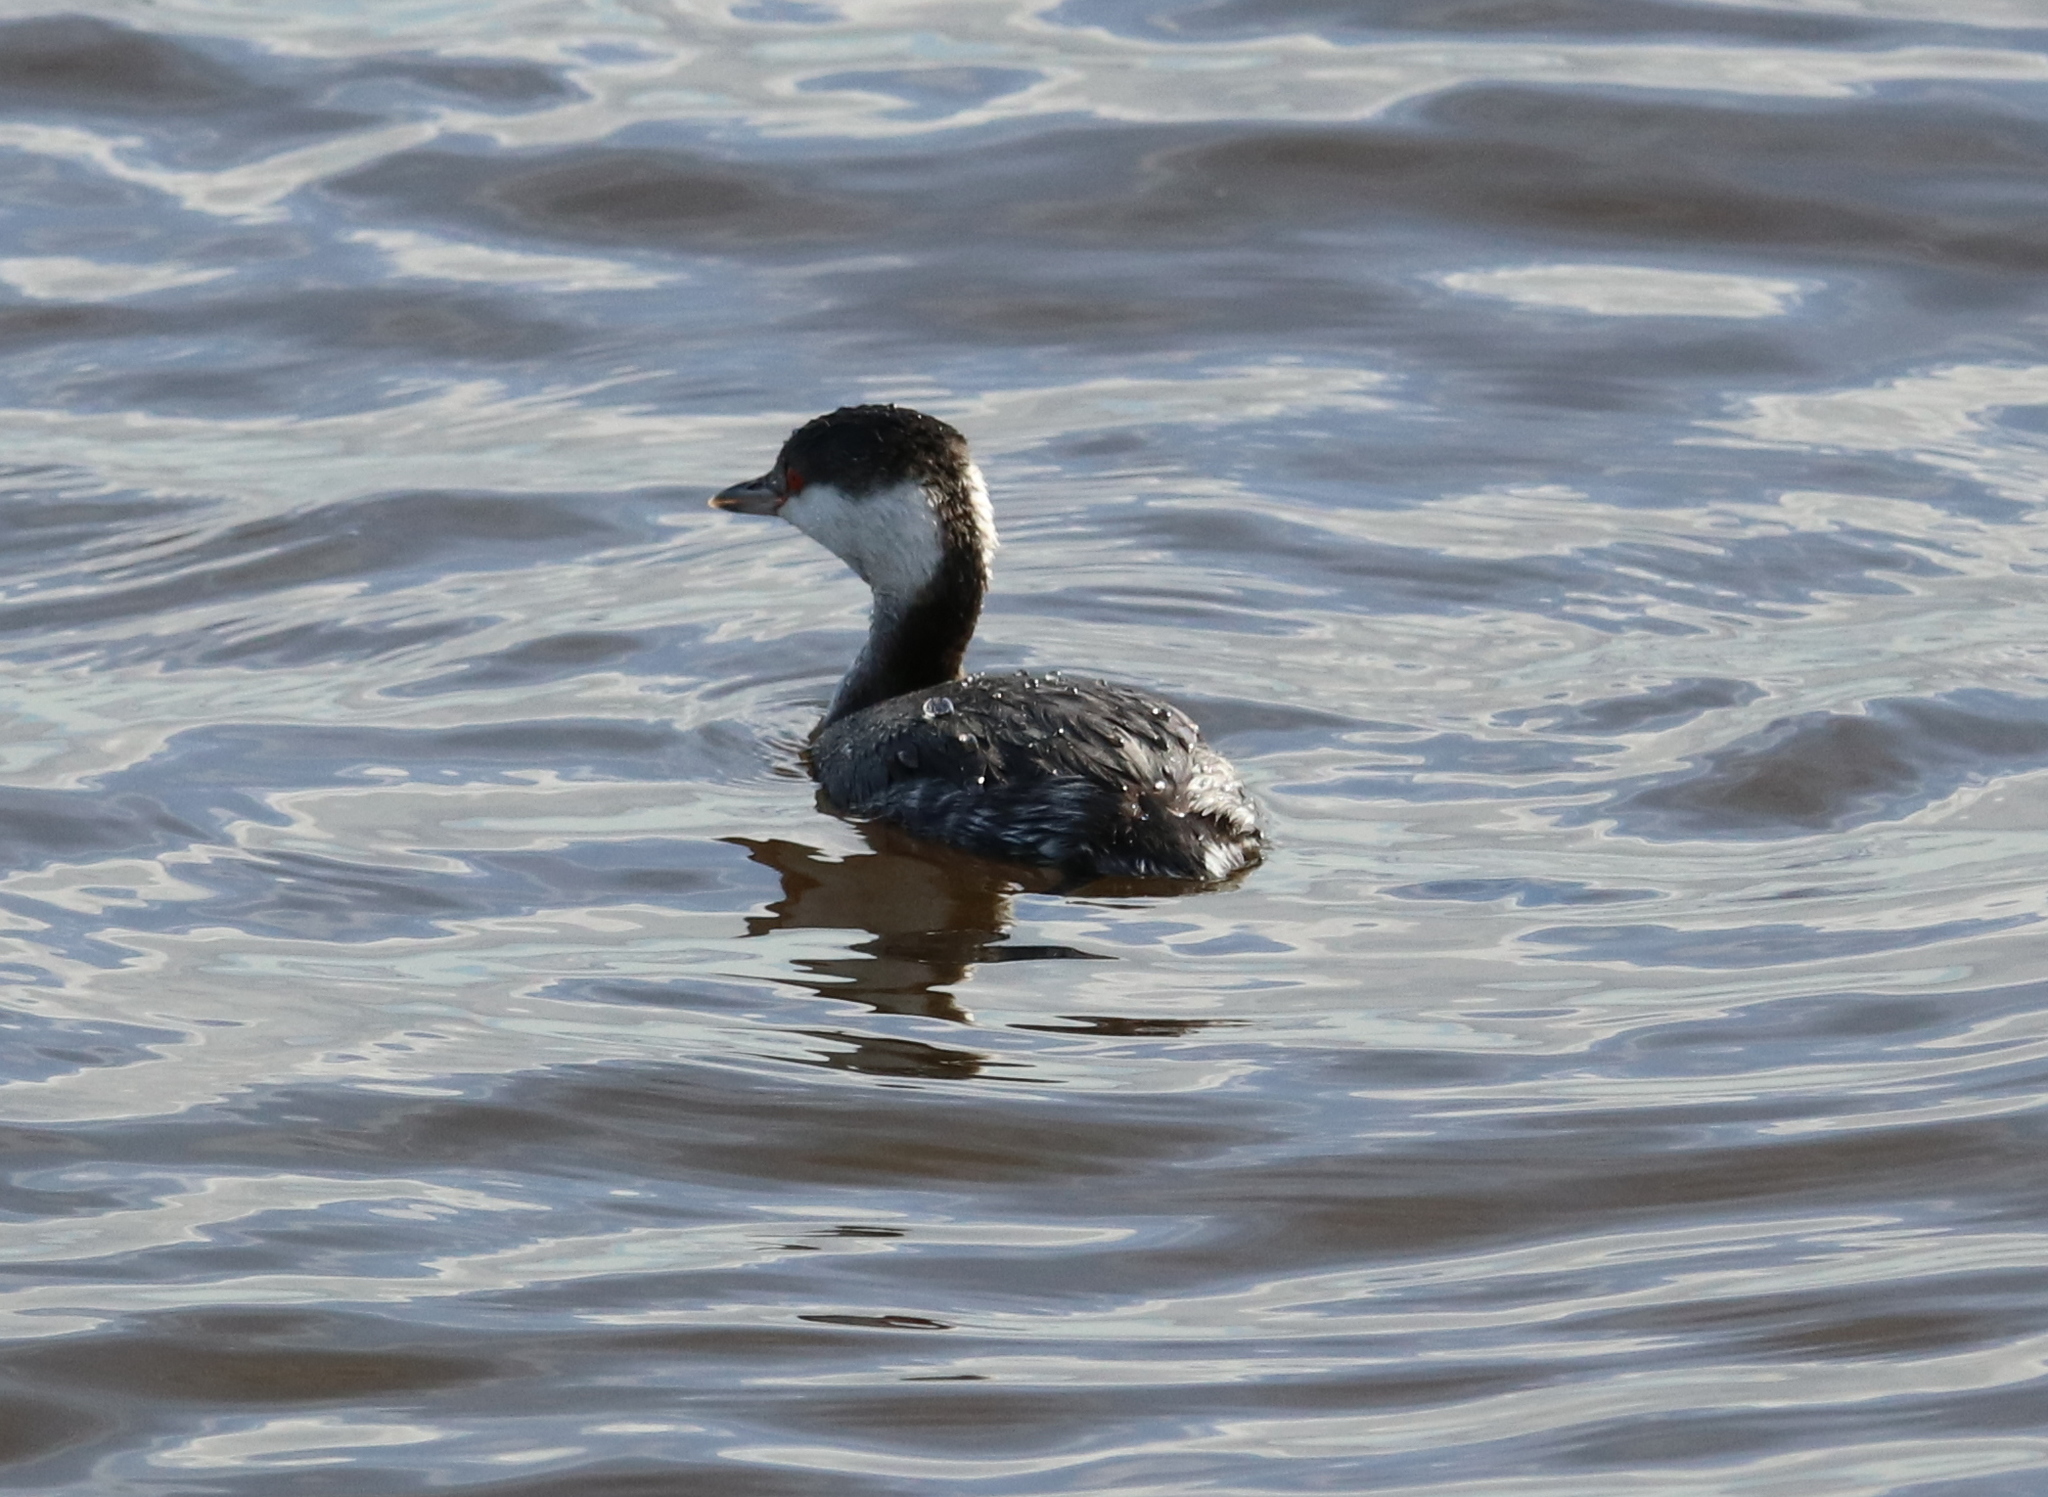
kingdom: Animalia
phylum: Chordata
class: Aves
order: Podicipediformes
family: Podicipedidae
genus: Podiceps
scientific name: Podiceps auritus
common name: Horned grebe
